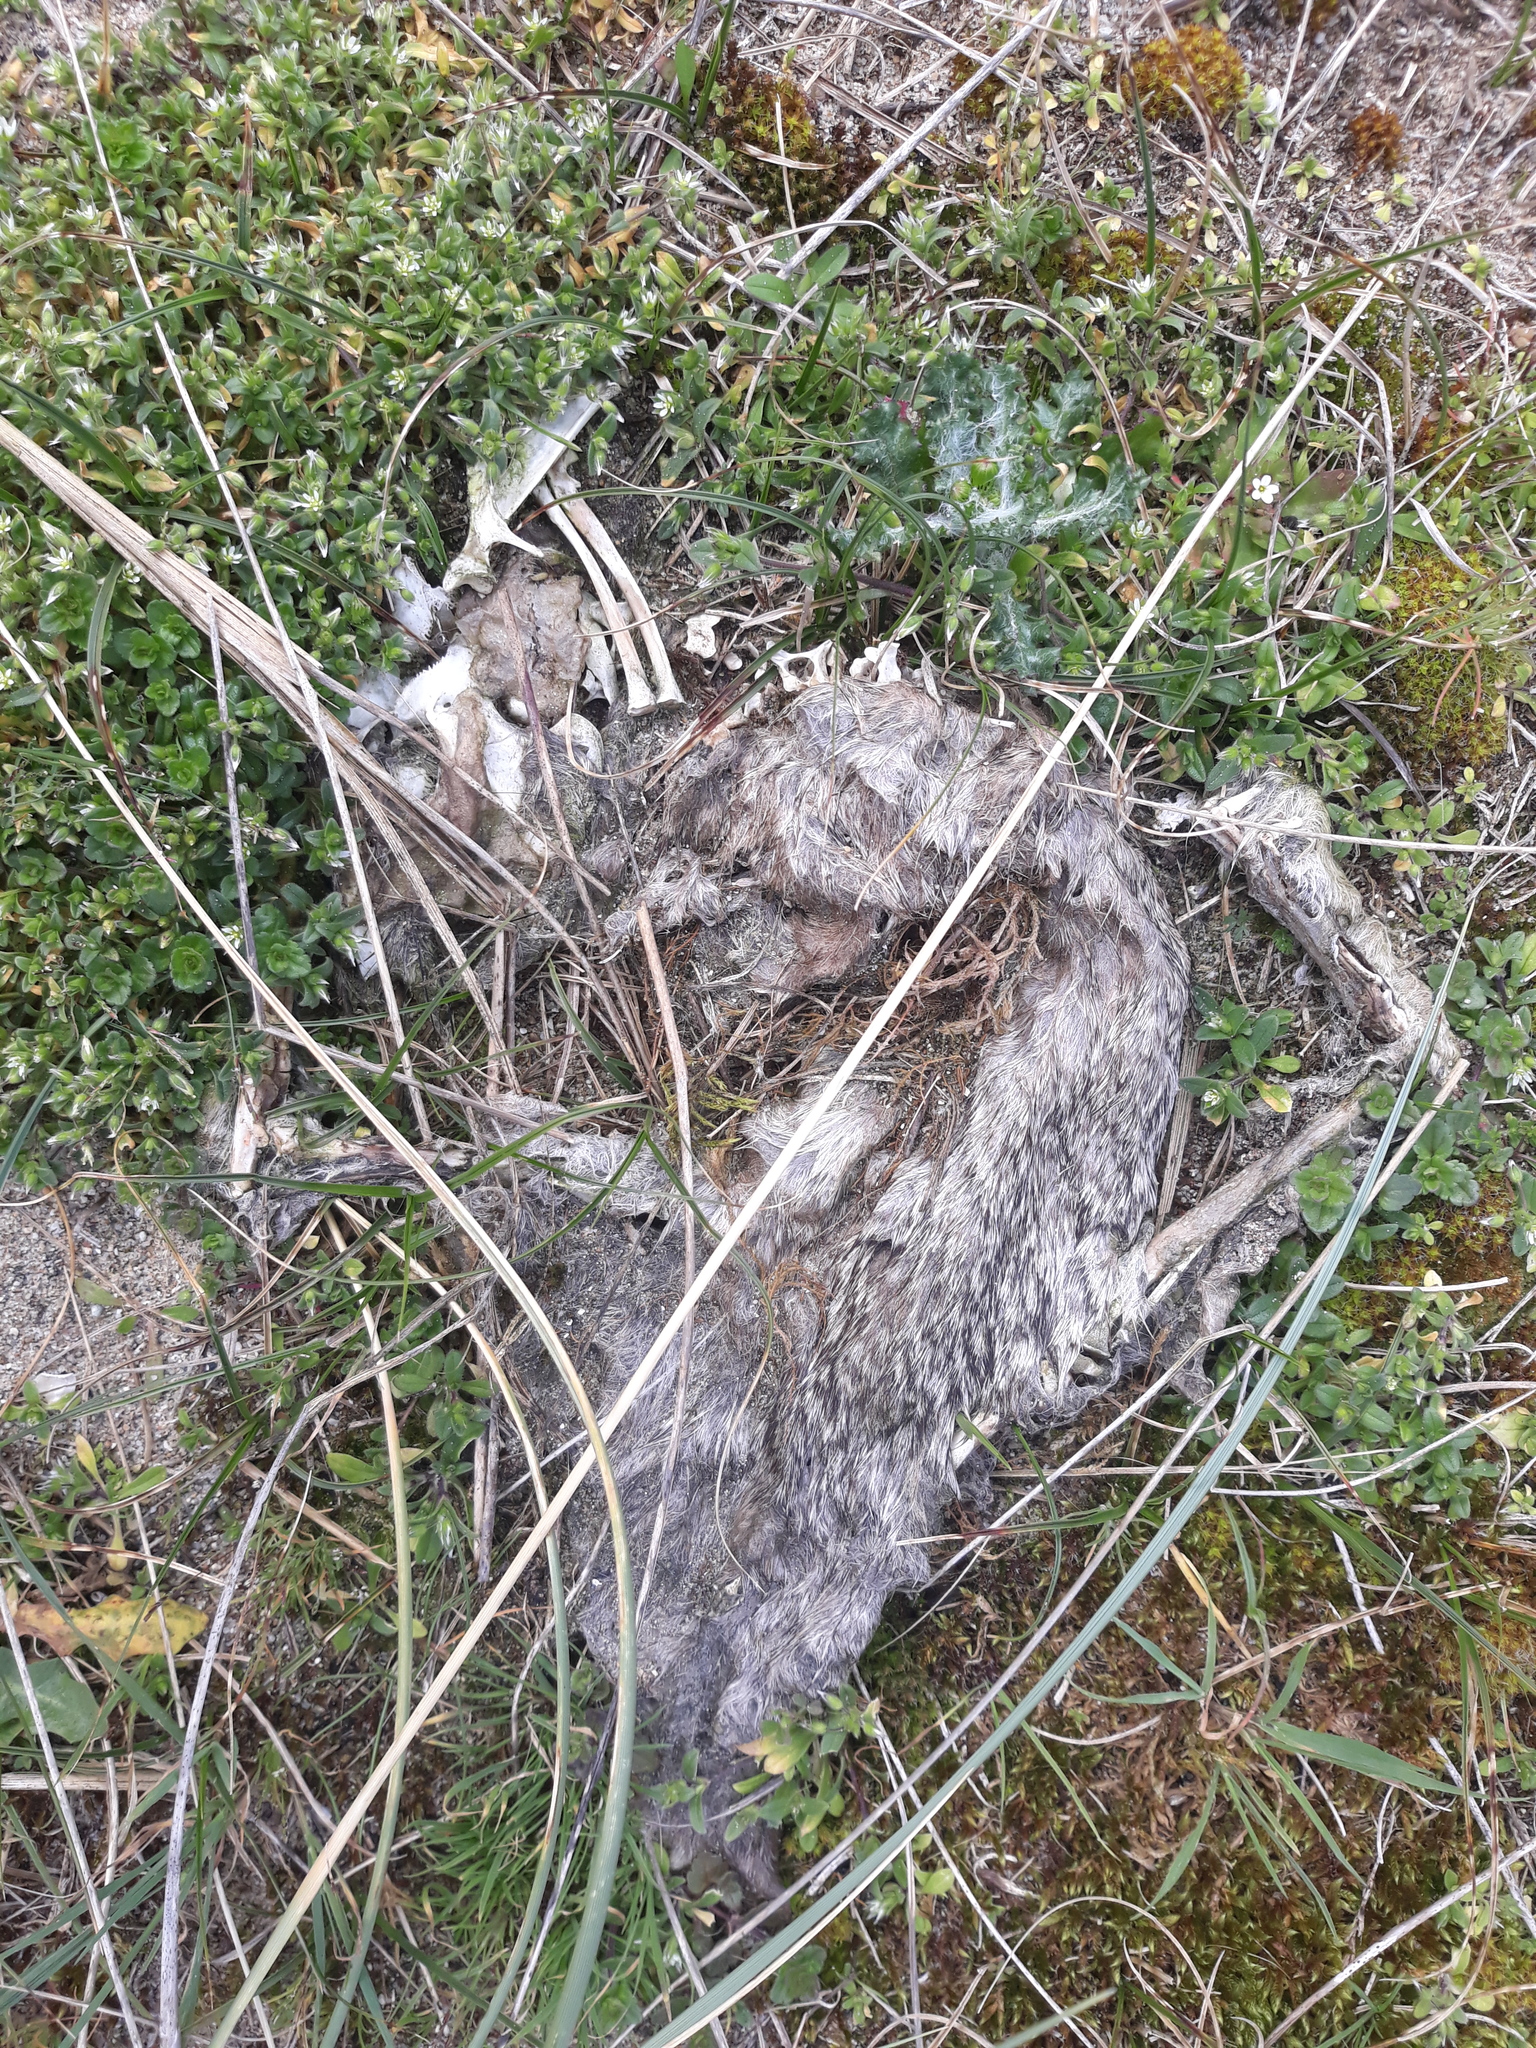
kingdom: Animalia
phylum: Chordata
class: Mammalia
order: Lagomorpha
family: Leporidae
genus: Oryctolagus
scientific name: Oryctolagus cuniculus
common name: European rabbit
